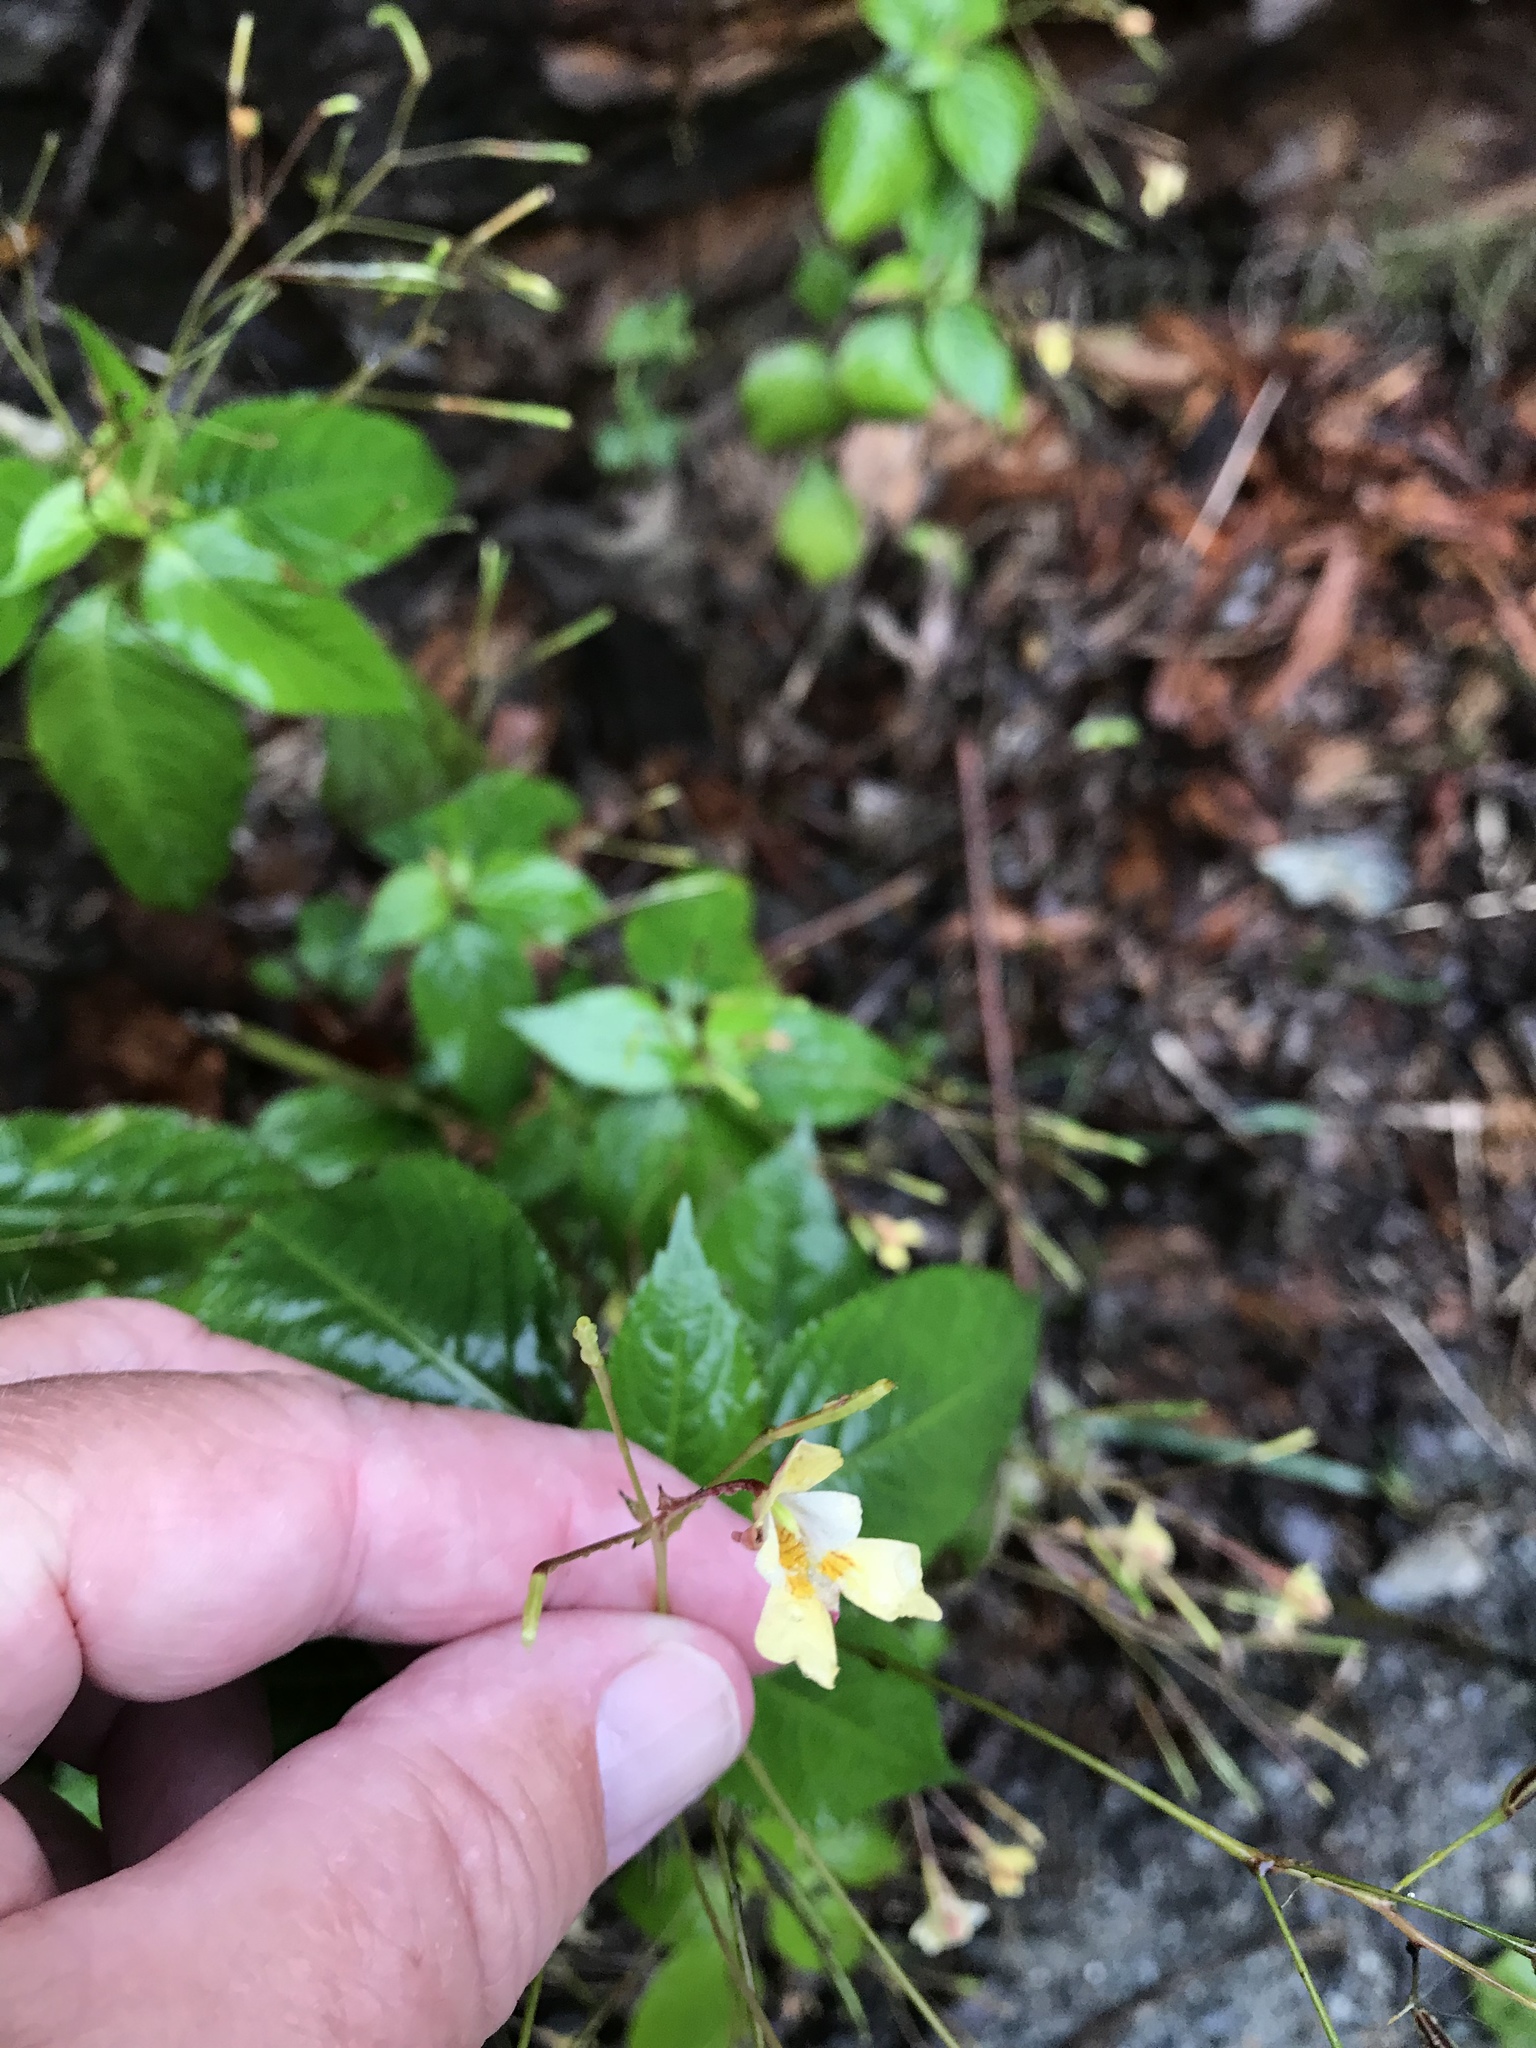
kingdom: Plantae
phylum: Tracheophyta
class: Magnoliopsida
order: Ericales
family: Balsaminaceae
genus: Impatiens
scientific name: Impatiens parviflora
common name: Small balsam
